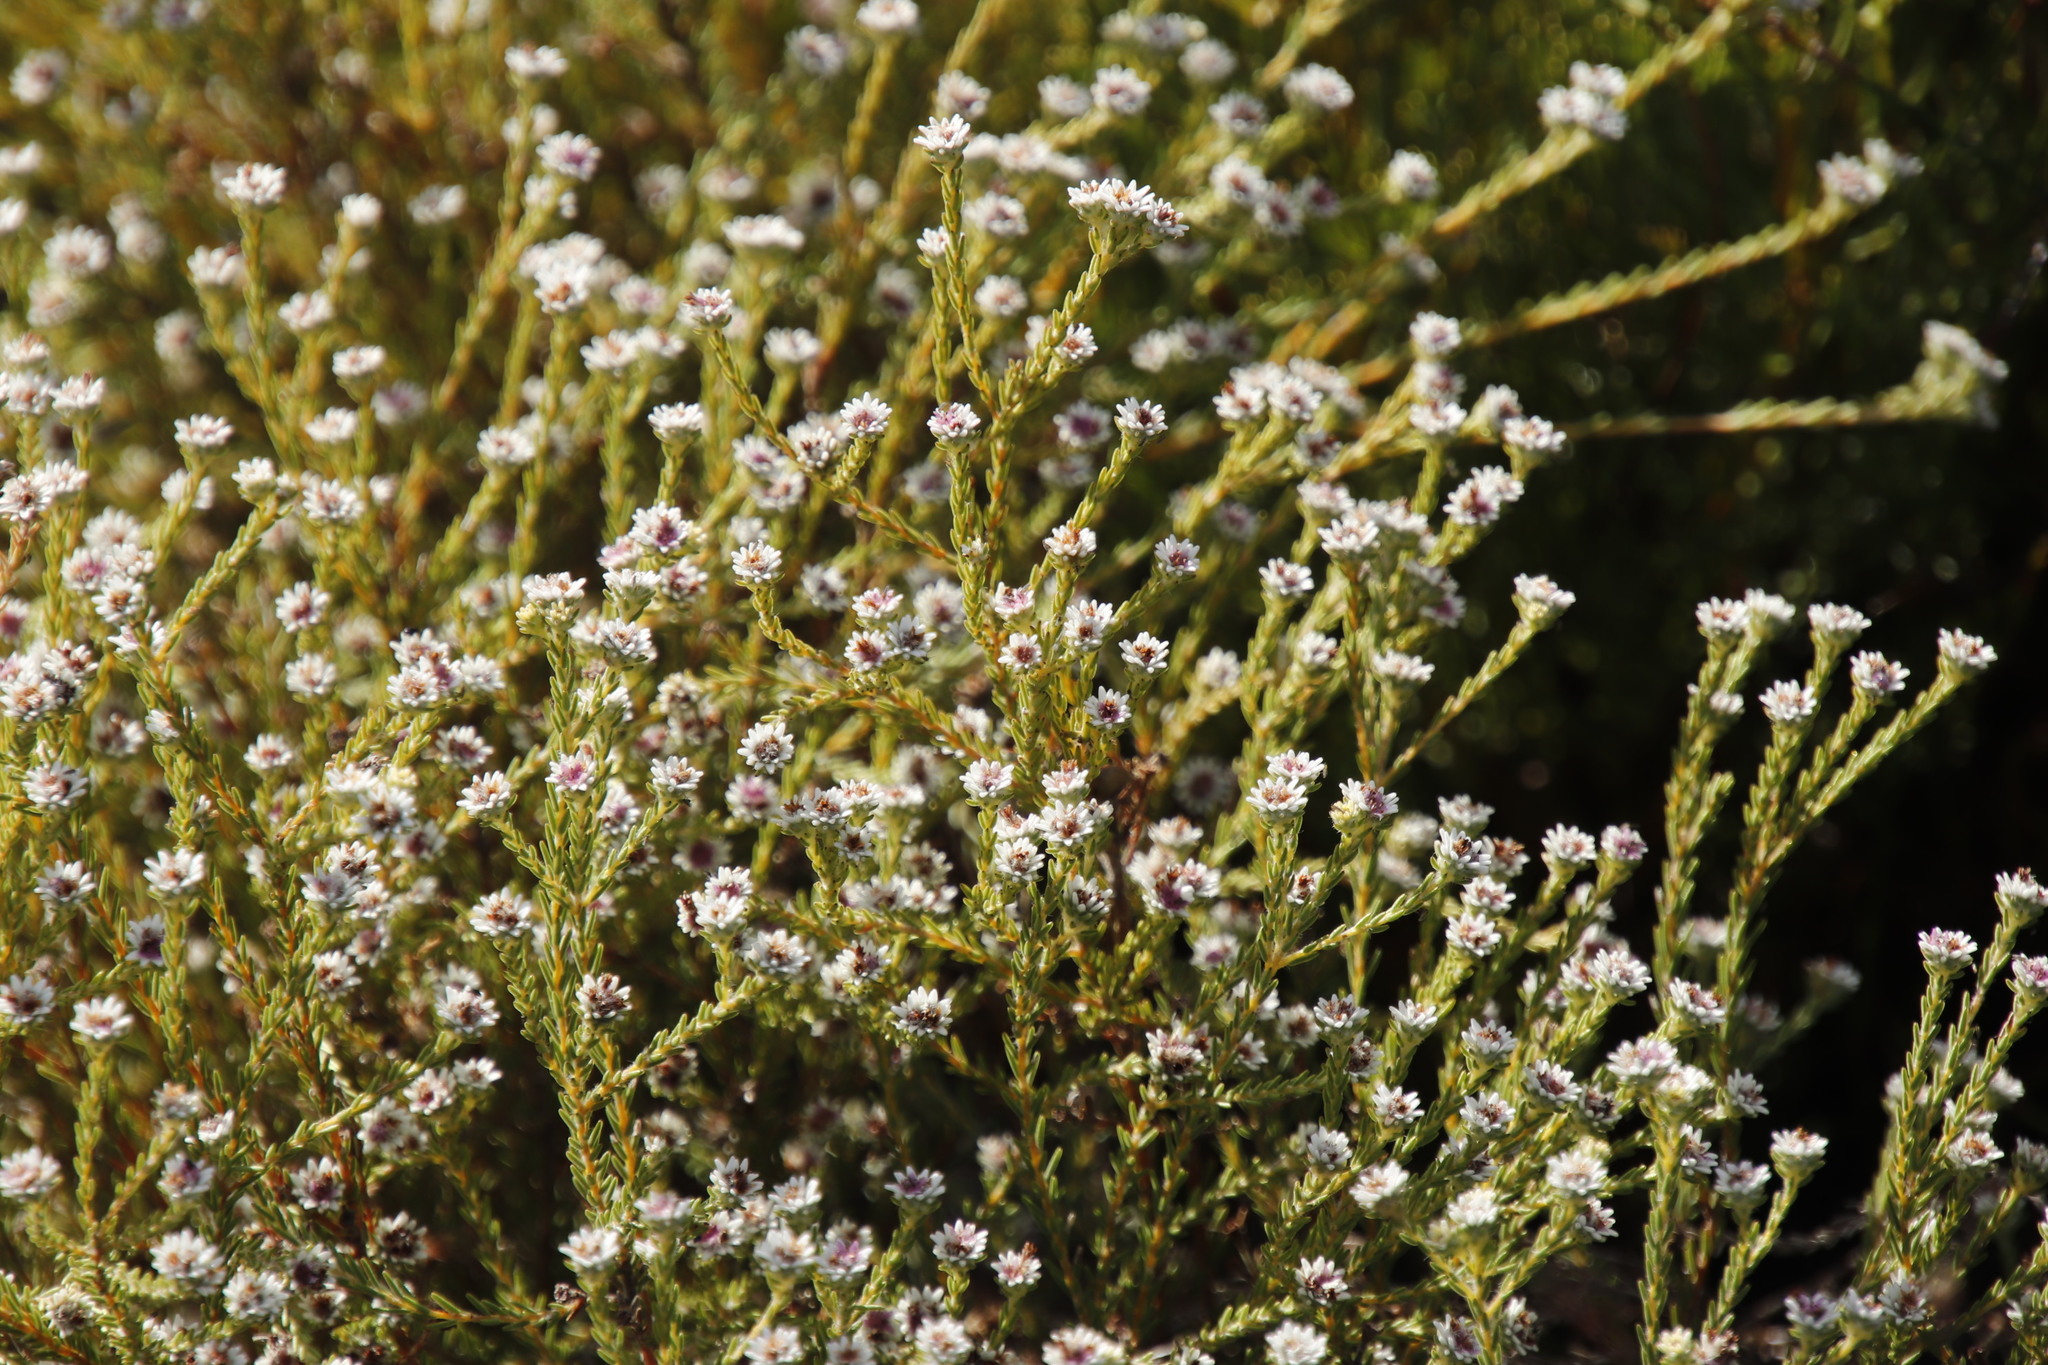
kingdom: Plantae
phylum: Tracheophyta
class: Magnoliopsida
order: Bruniales
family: Bruniaceae
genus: Staavia
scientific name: Staavia radiata
